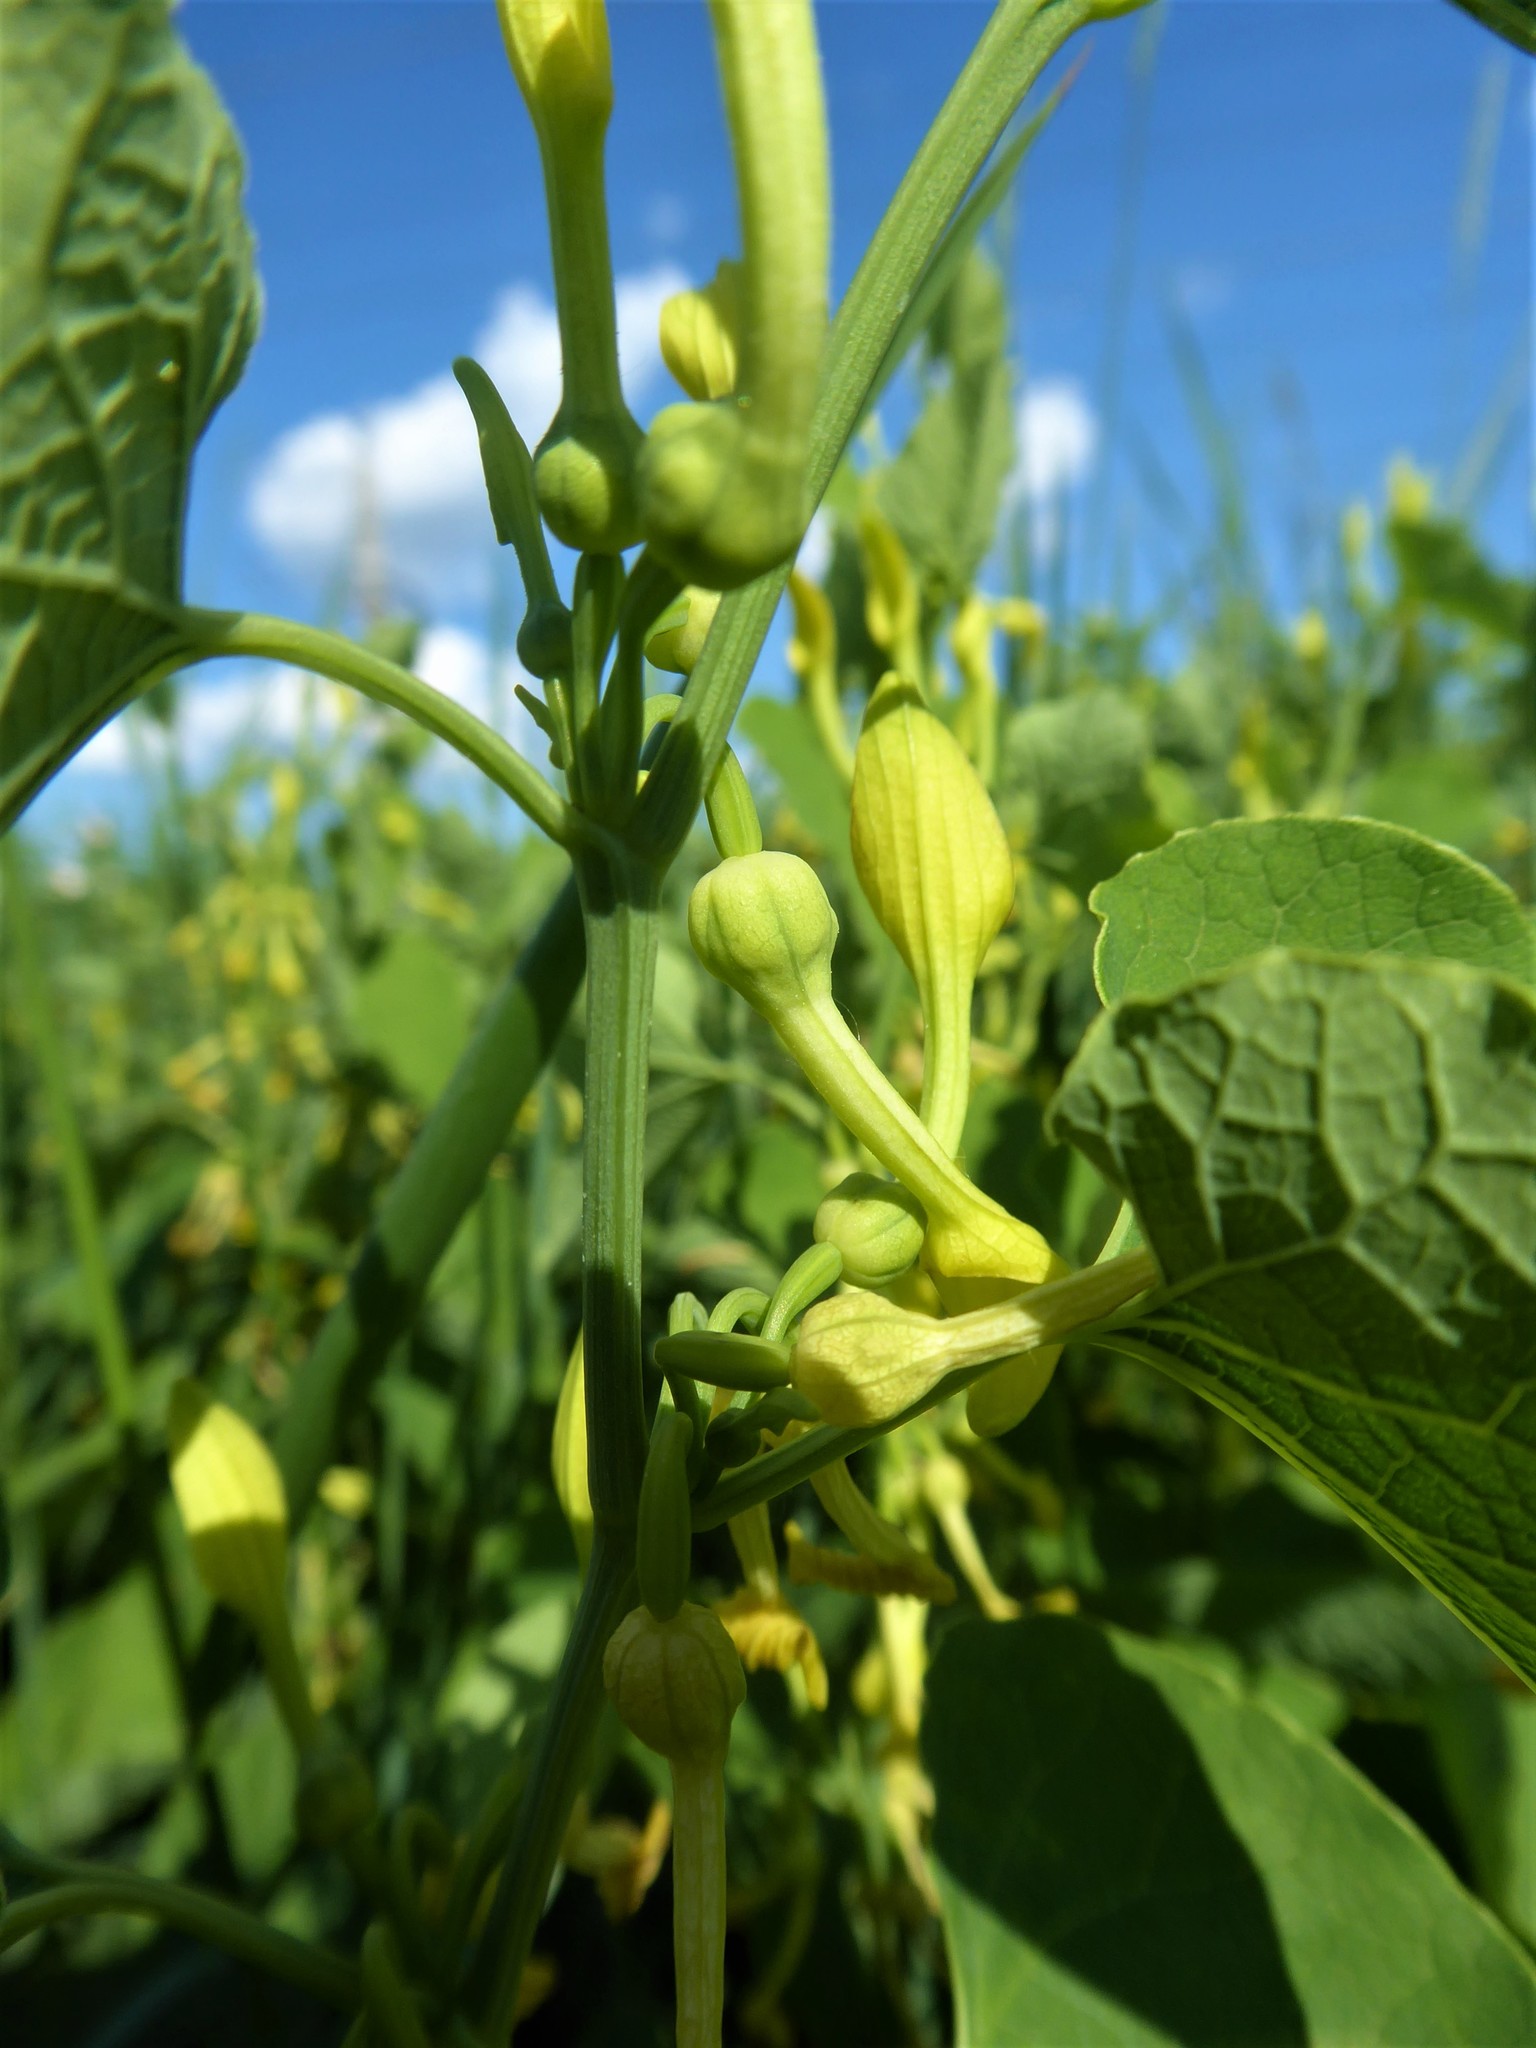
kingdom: Plantae
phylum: Tracheophyta
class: Magnoliopsida
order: Piperales
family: Aristolochiaceae
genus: Aristolochia
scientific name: Aristolochia clematitis
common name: Birthwort
